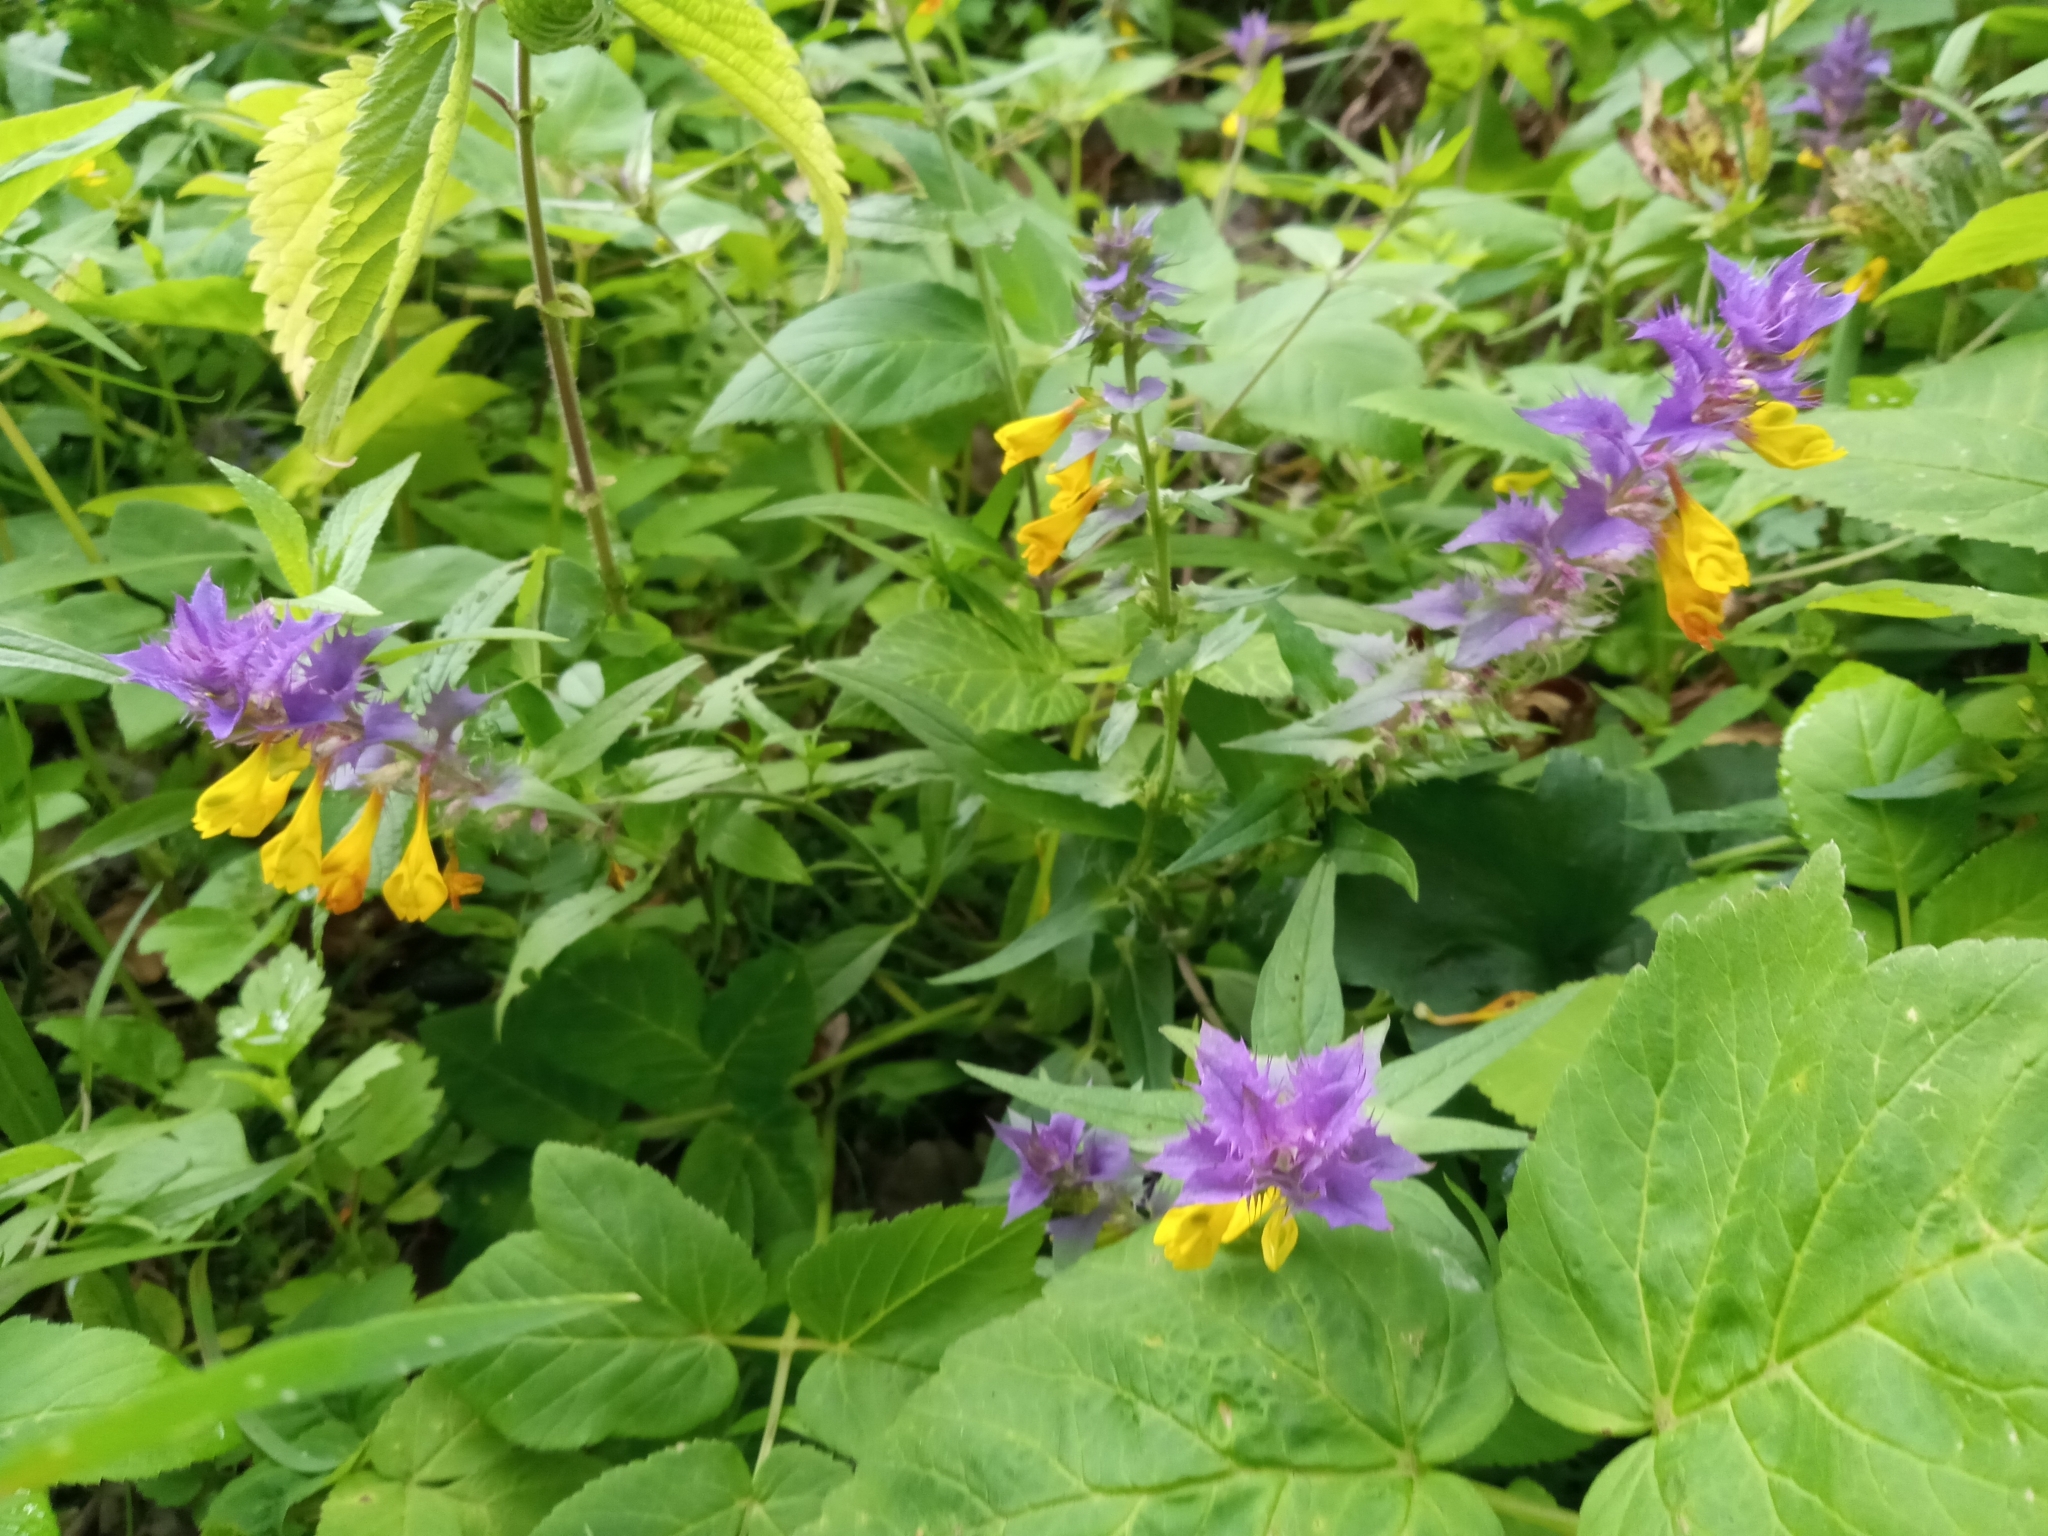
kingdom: Plantae
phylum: Tracheophyta
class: Magnoliopsida
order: Lamiales
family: Orobanchaceae
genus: Melampyrum
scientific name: Melampyrum nemorosum
